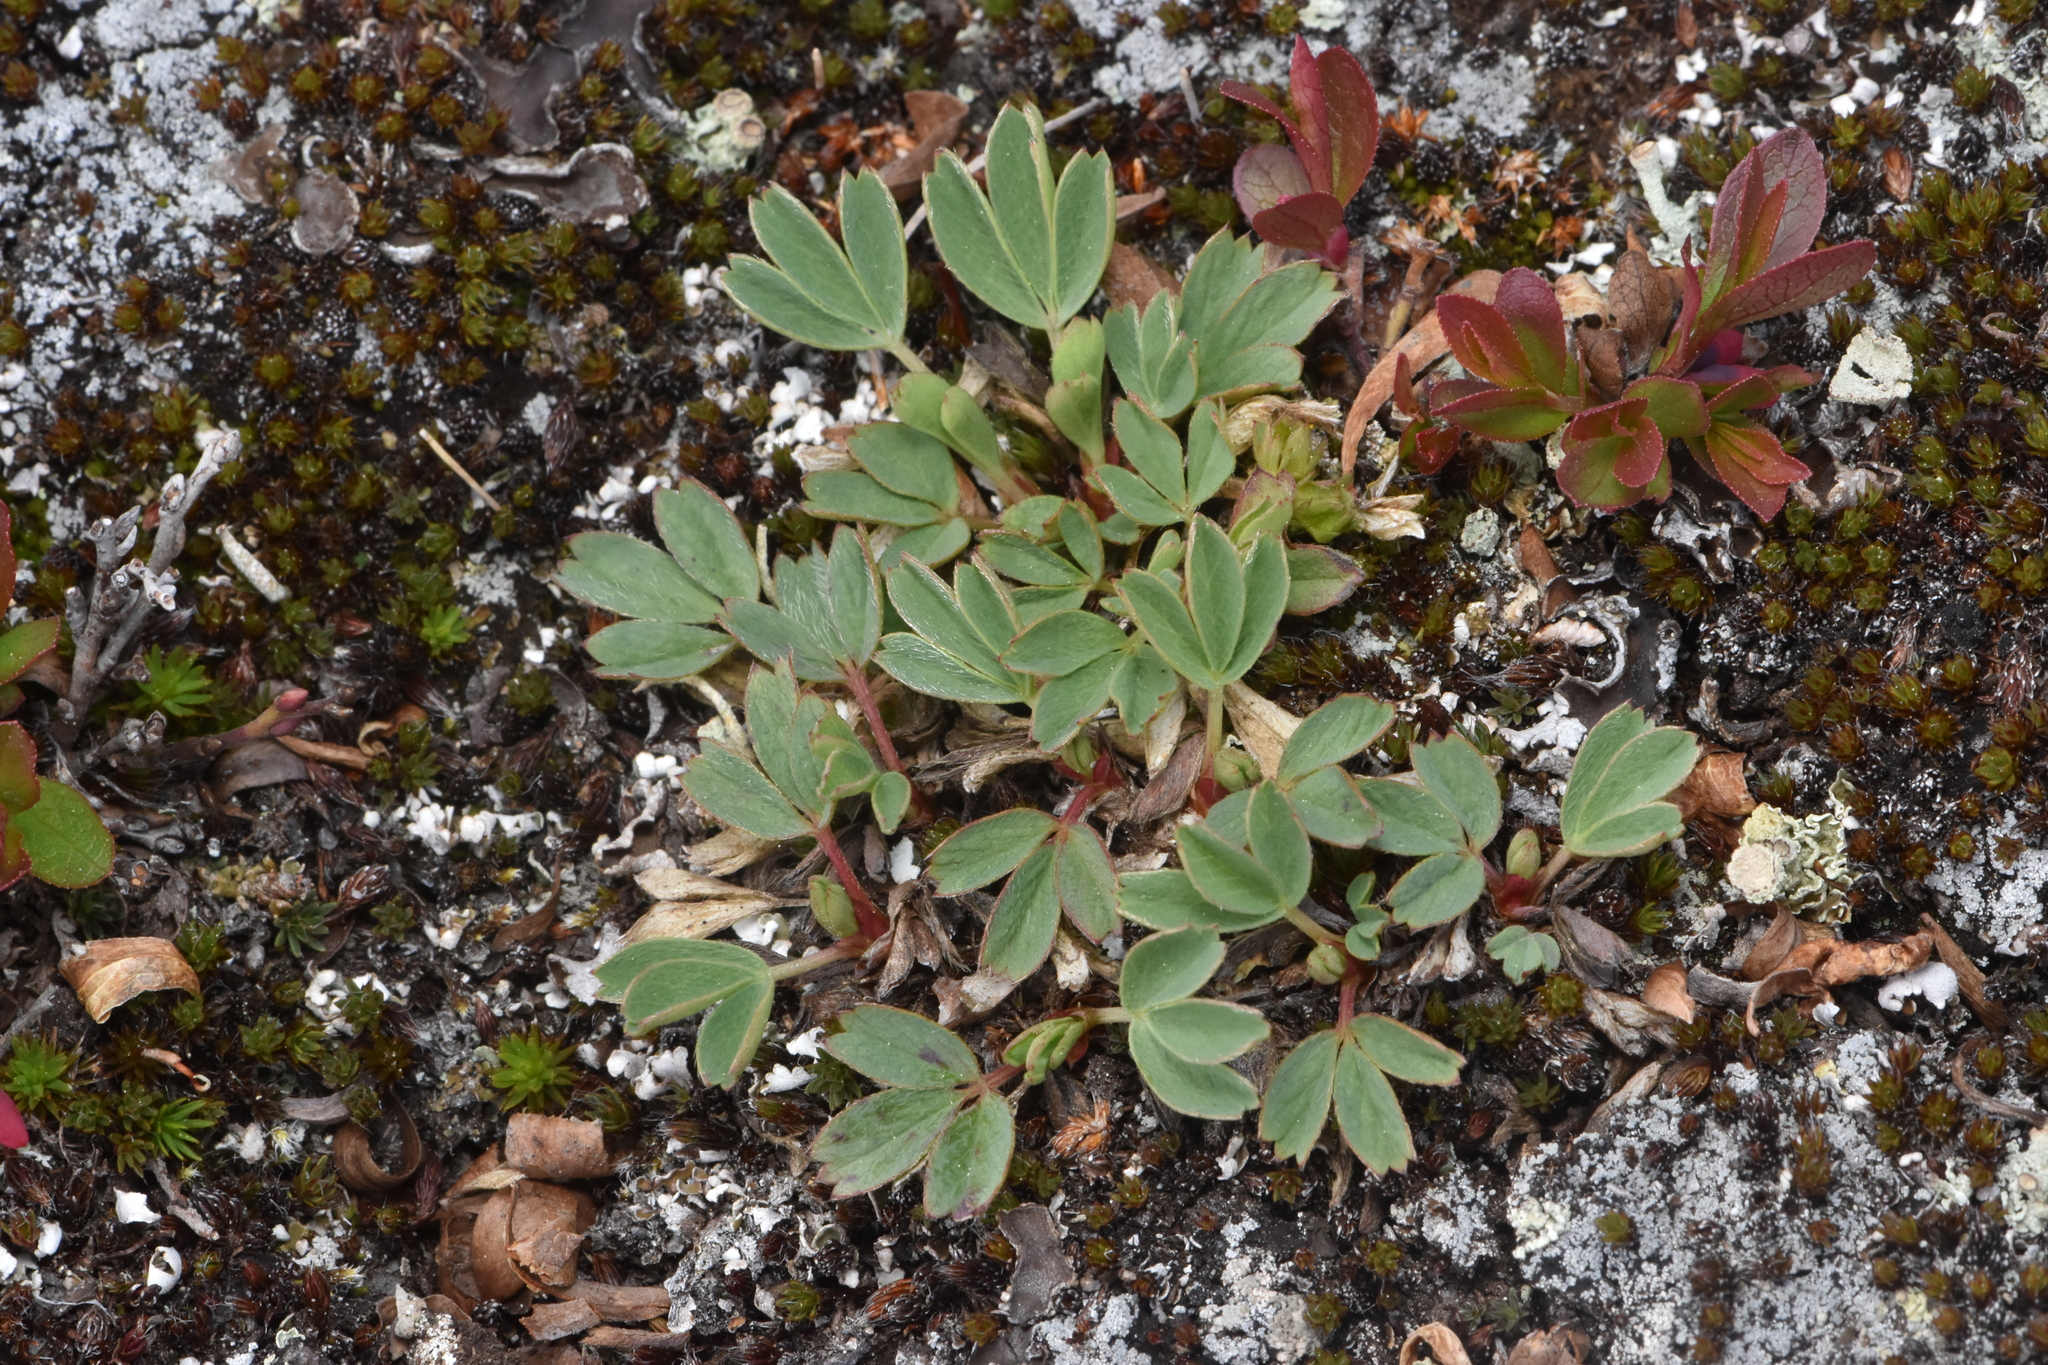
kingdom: Plantae
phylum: Tracheophyta
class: Magnoliopsida
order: Rosales
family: Rosaceae
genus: Sibbaldia
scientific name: Sibbaldia procumbens
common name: Creeping sibbaldia
